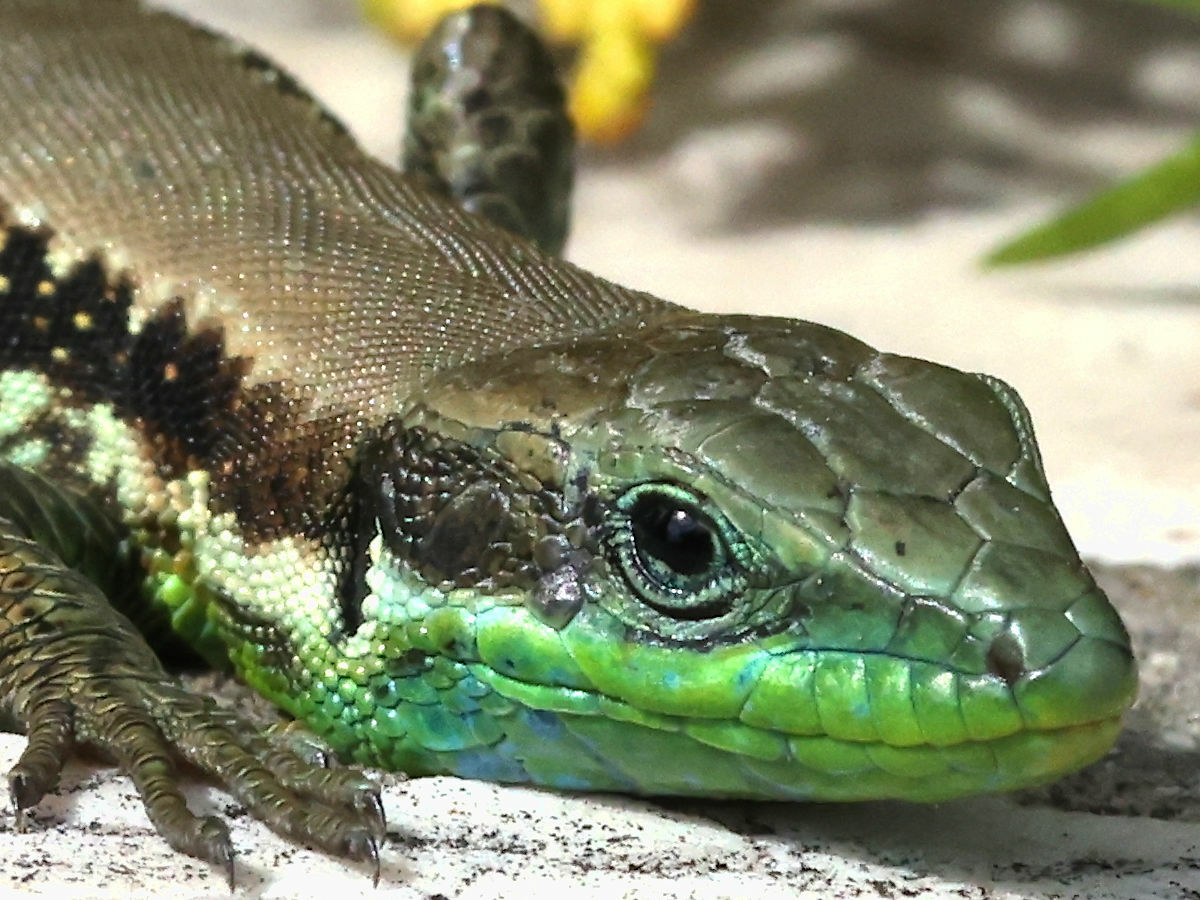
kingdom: Animalia
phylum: Chordata
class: Squamata
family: Lacertidae
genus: Phoenicolacerta
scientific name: Phoenicolacerta laevis
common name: Lebanon lizard
